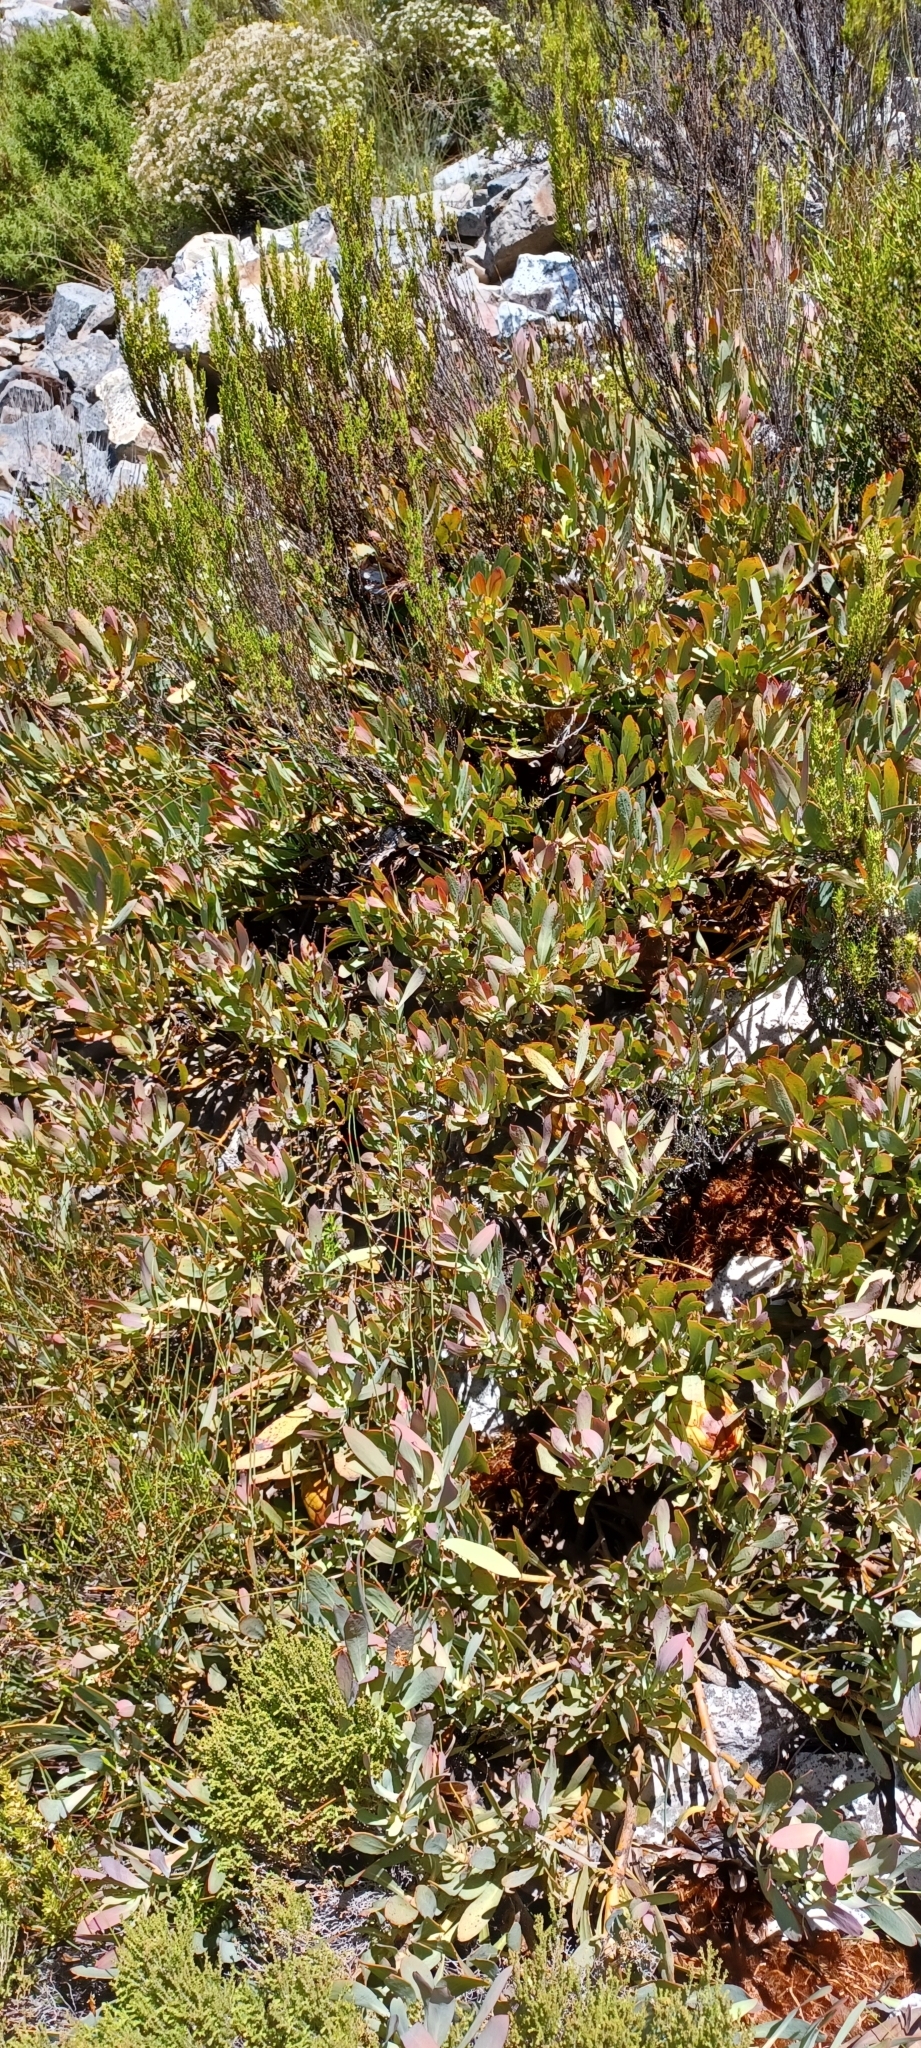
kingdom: Plantae
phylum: Tracheophyta
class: Magnoliopsida
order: Proteales
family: Proteaceae
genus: Protea
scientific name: Protea effusa
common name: Scarlet sugarbush
